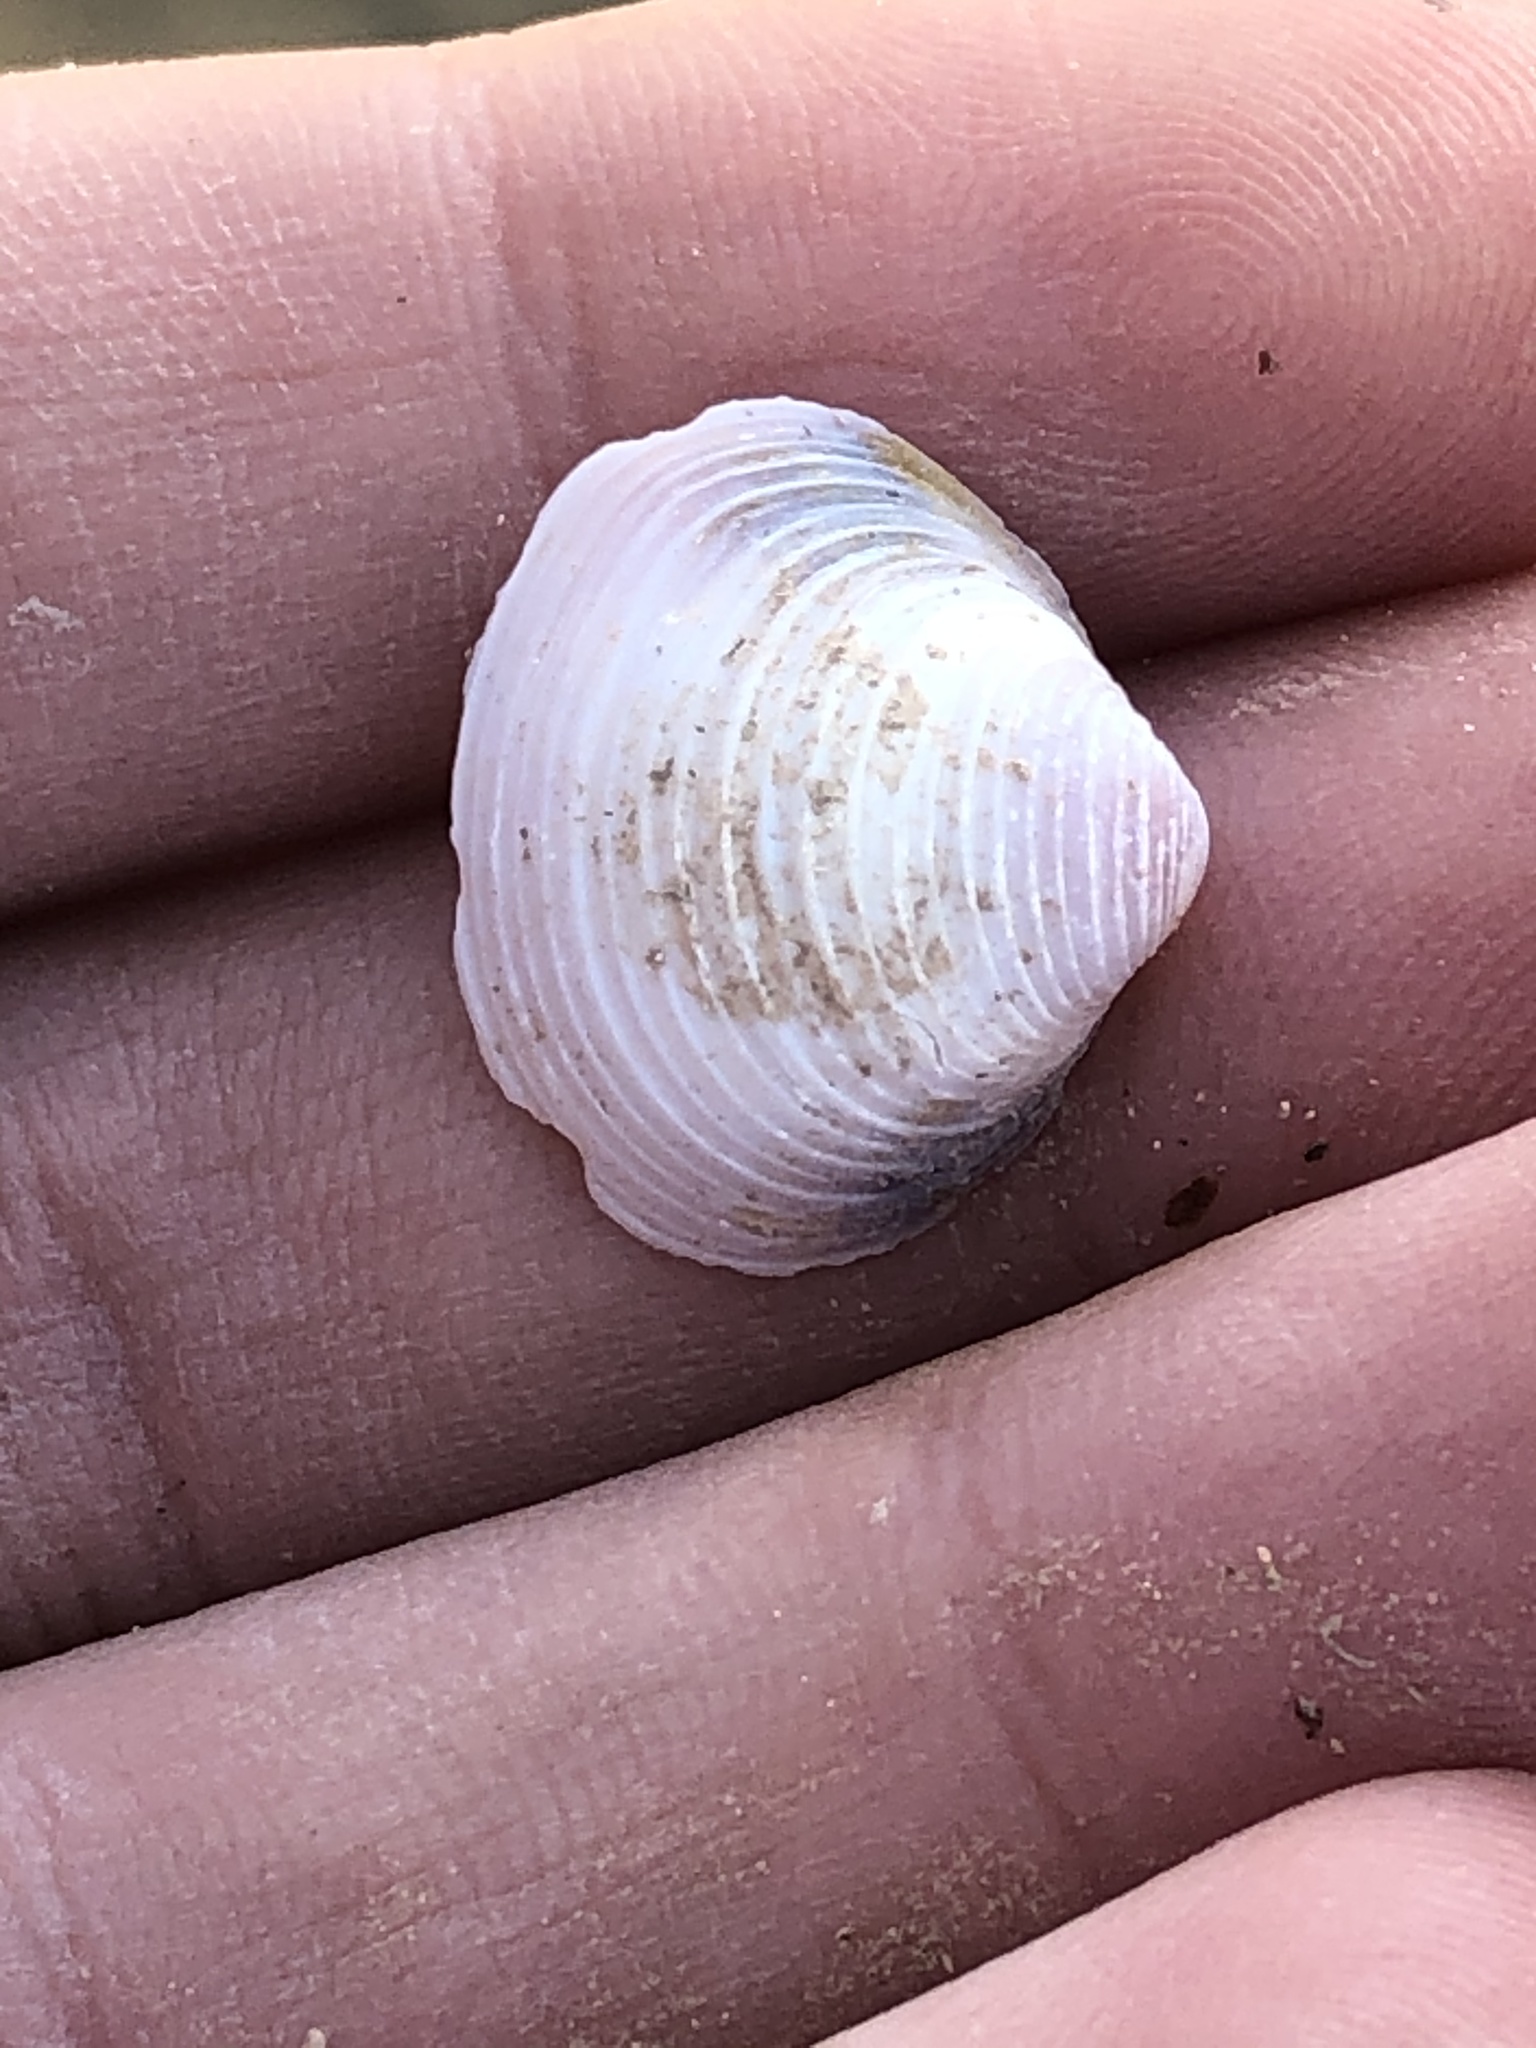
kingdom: Animalia
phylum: Mollusca
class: Bivalvia
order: Venerida
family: Cyrenidae
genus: Corbicula
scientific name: Corbicula fluminea
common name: Asian clam
